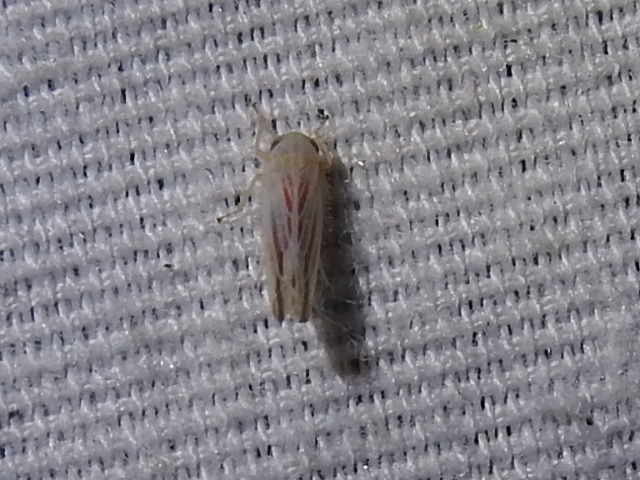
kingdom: Animalia
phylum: Arthropoda
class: Insecta
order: Hemiptera
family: Cicadellidae
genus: Balclutha
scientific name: Balclutha rubrostriata
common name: Red-streaked leafhopper
